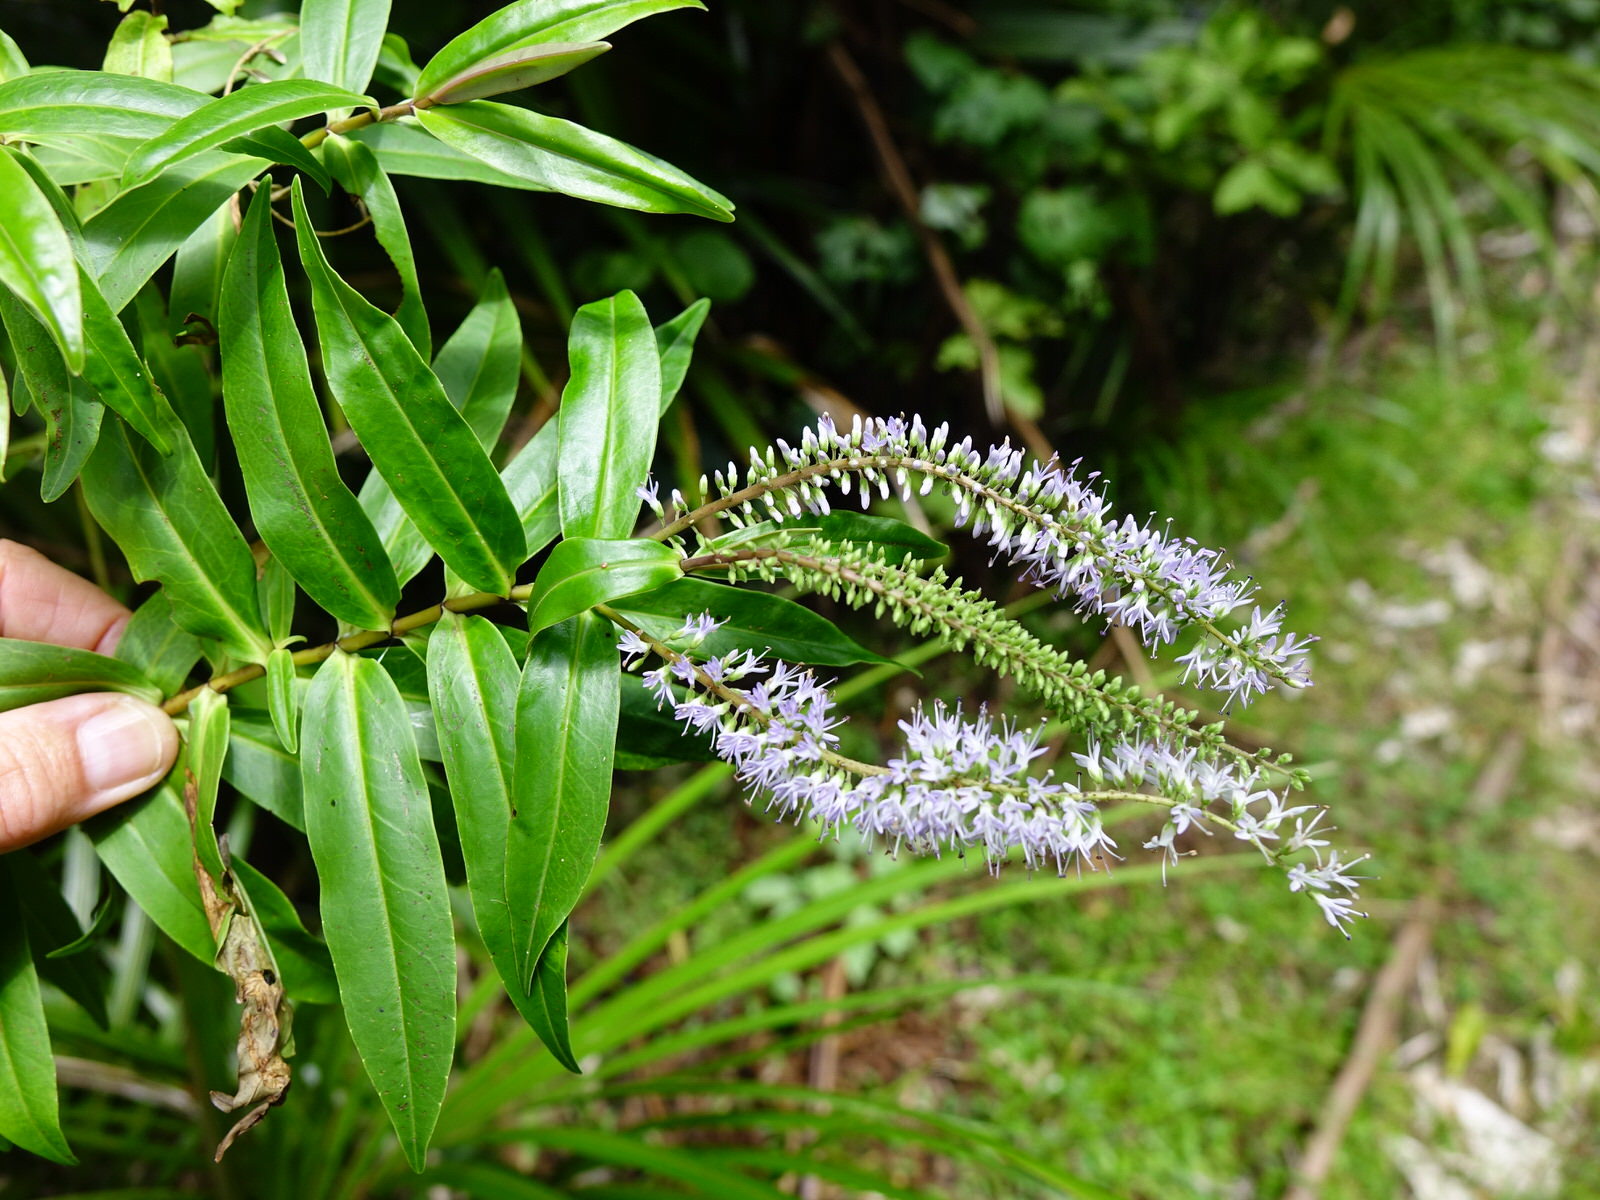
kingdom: Plantae
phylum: Tracheophyta
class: Magnoliopsida
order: Lamiales
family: Plantaginaceae
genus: Veronica
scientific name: Veronica stricta
